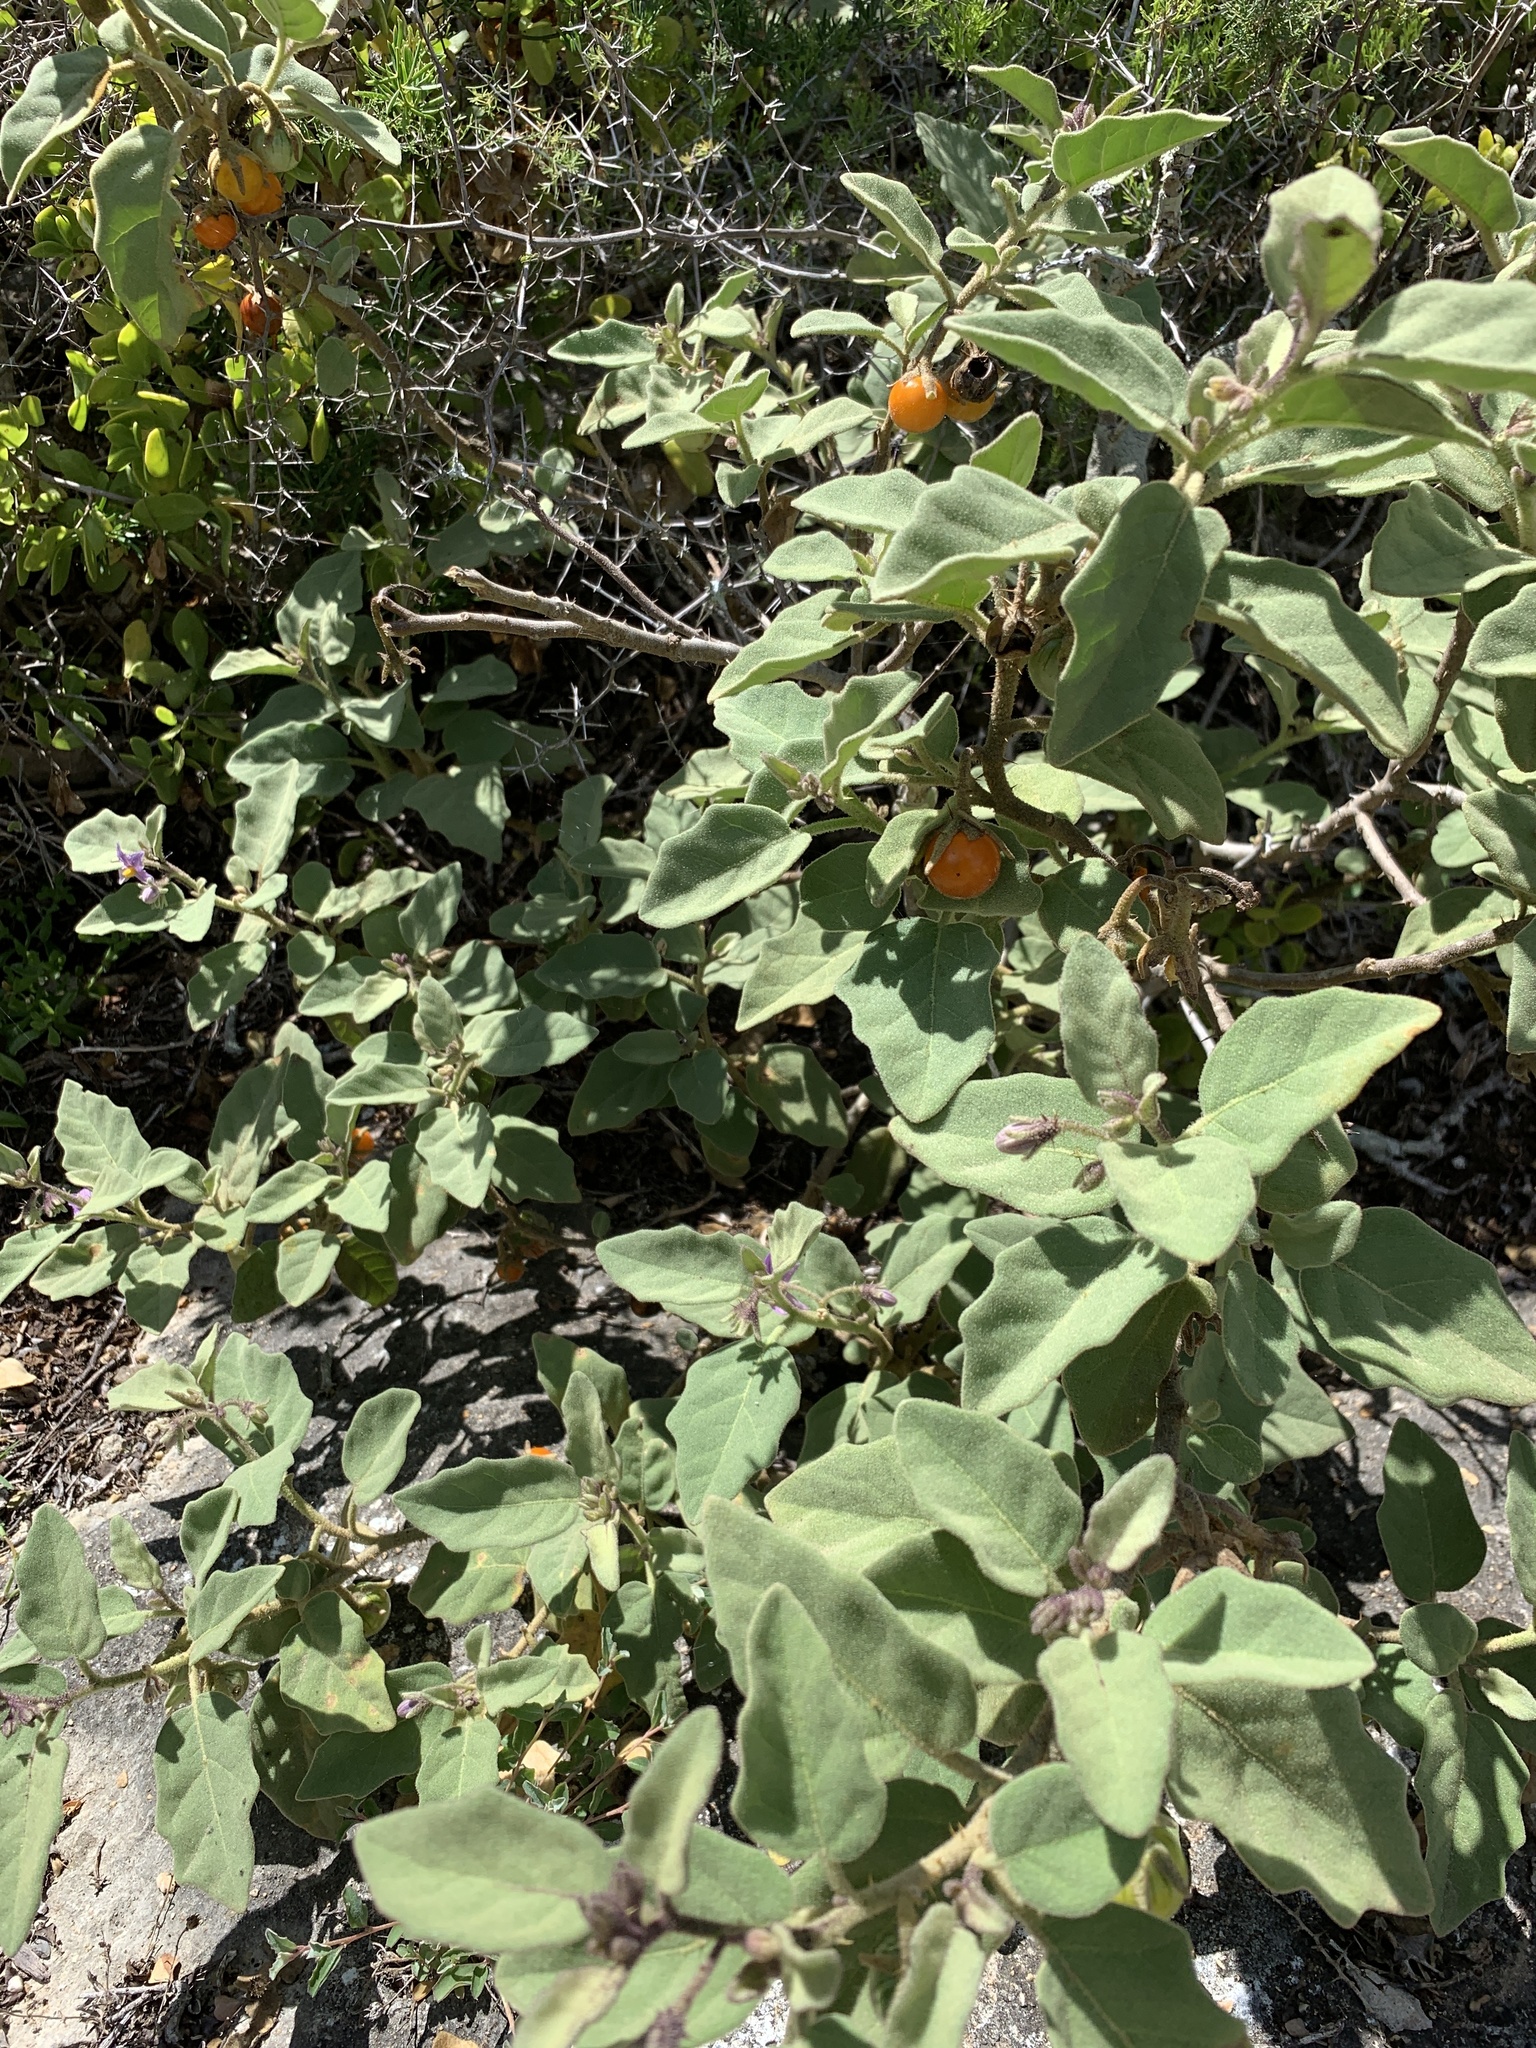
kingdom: Plantae
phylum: Tracheophyta
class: Magnoliopsida
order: Solanales
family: Solanaceae
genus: Solanum
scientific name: Solanum tomentosum
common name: Wild aubergine
